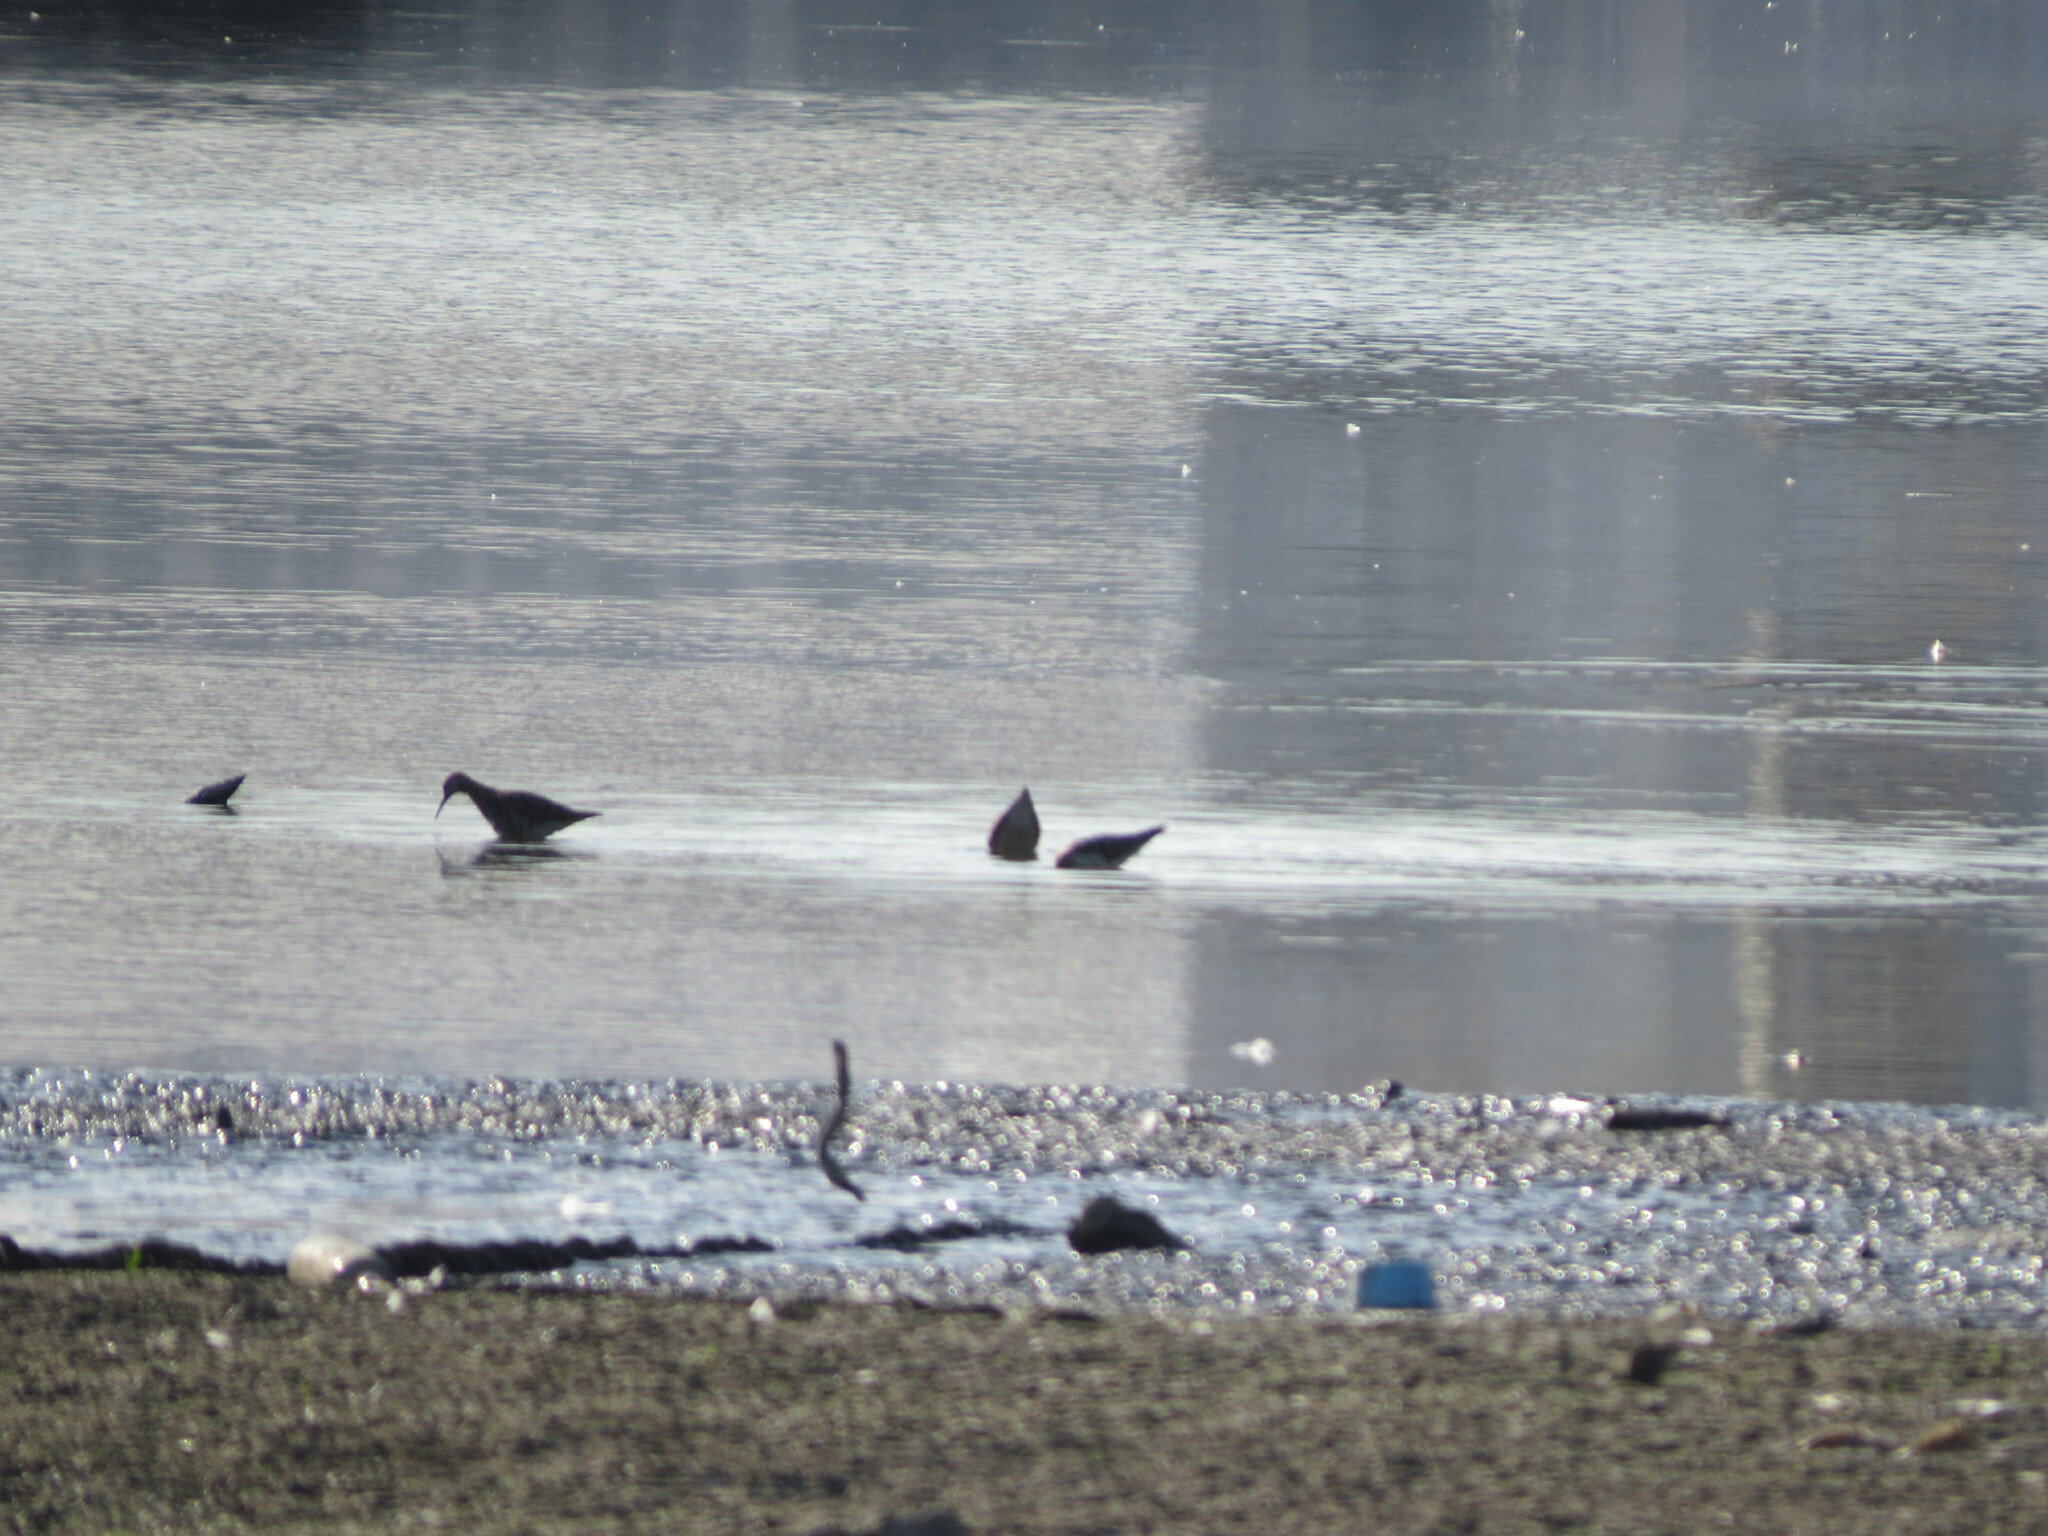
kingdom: Animalia
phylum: Chordata
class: Aves
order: Charadriiformes
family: Scolopacidae
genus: Calidris
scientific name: Calidris pugnax
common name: Ruff
